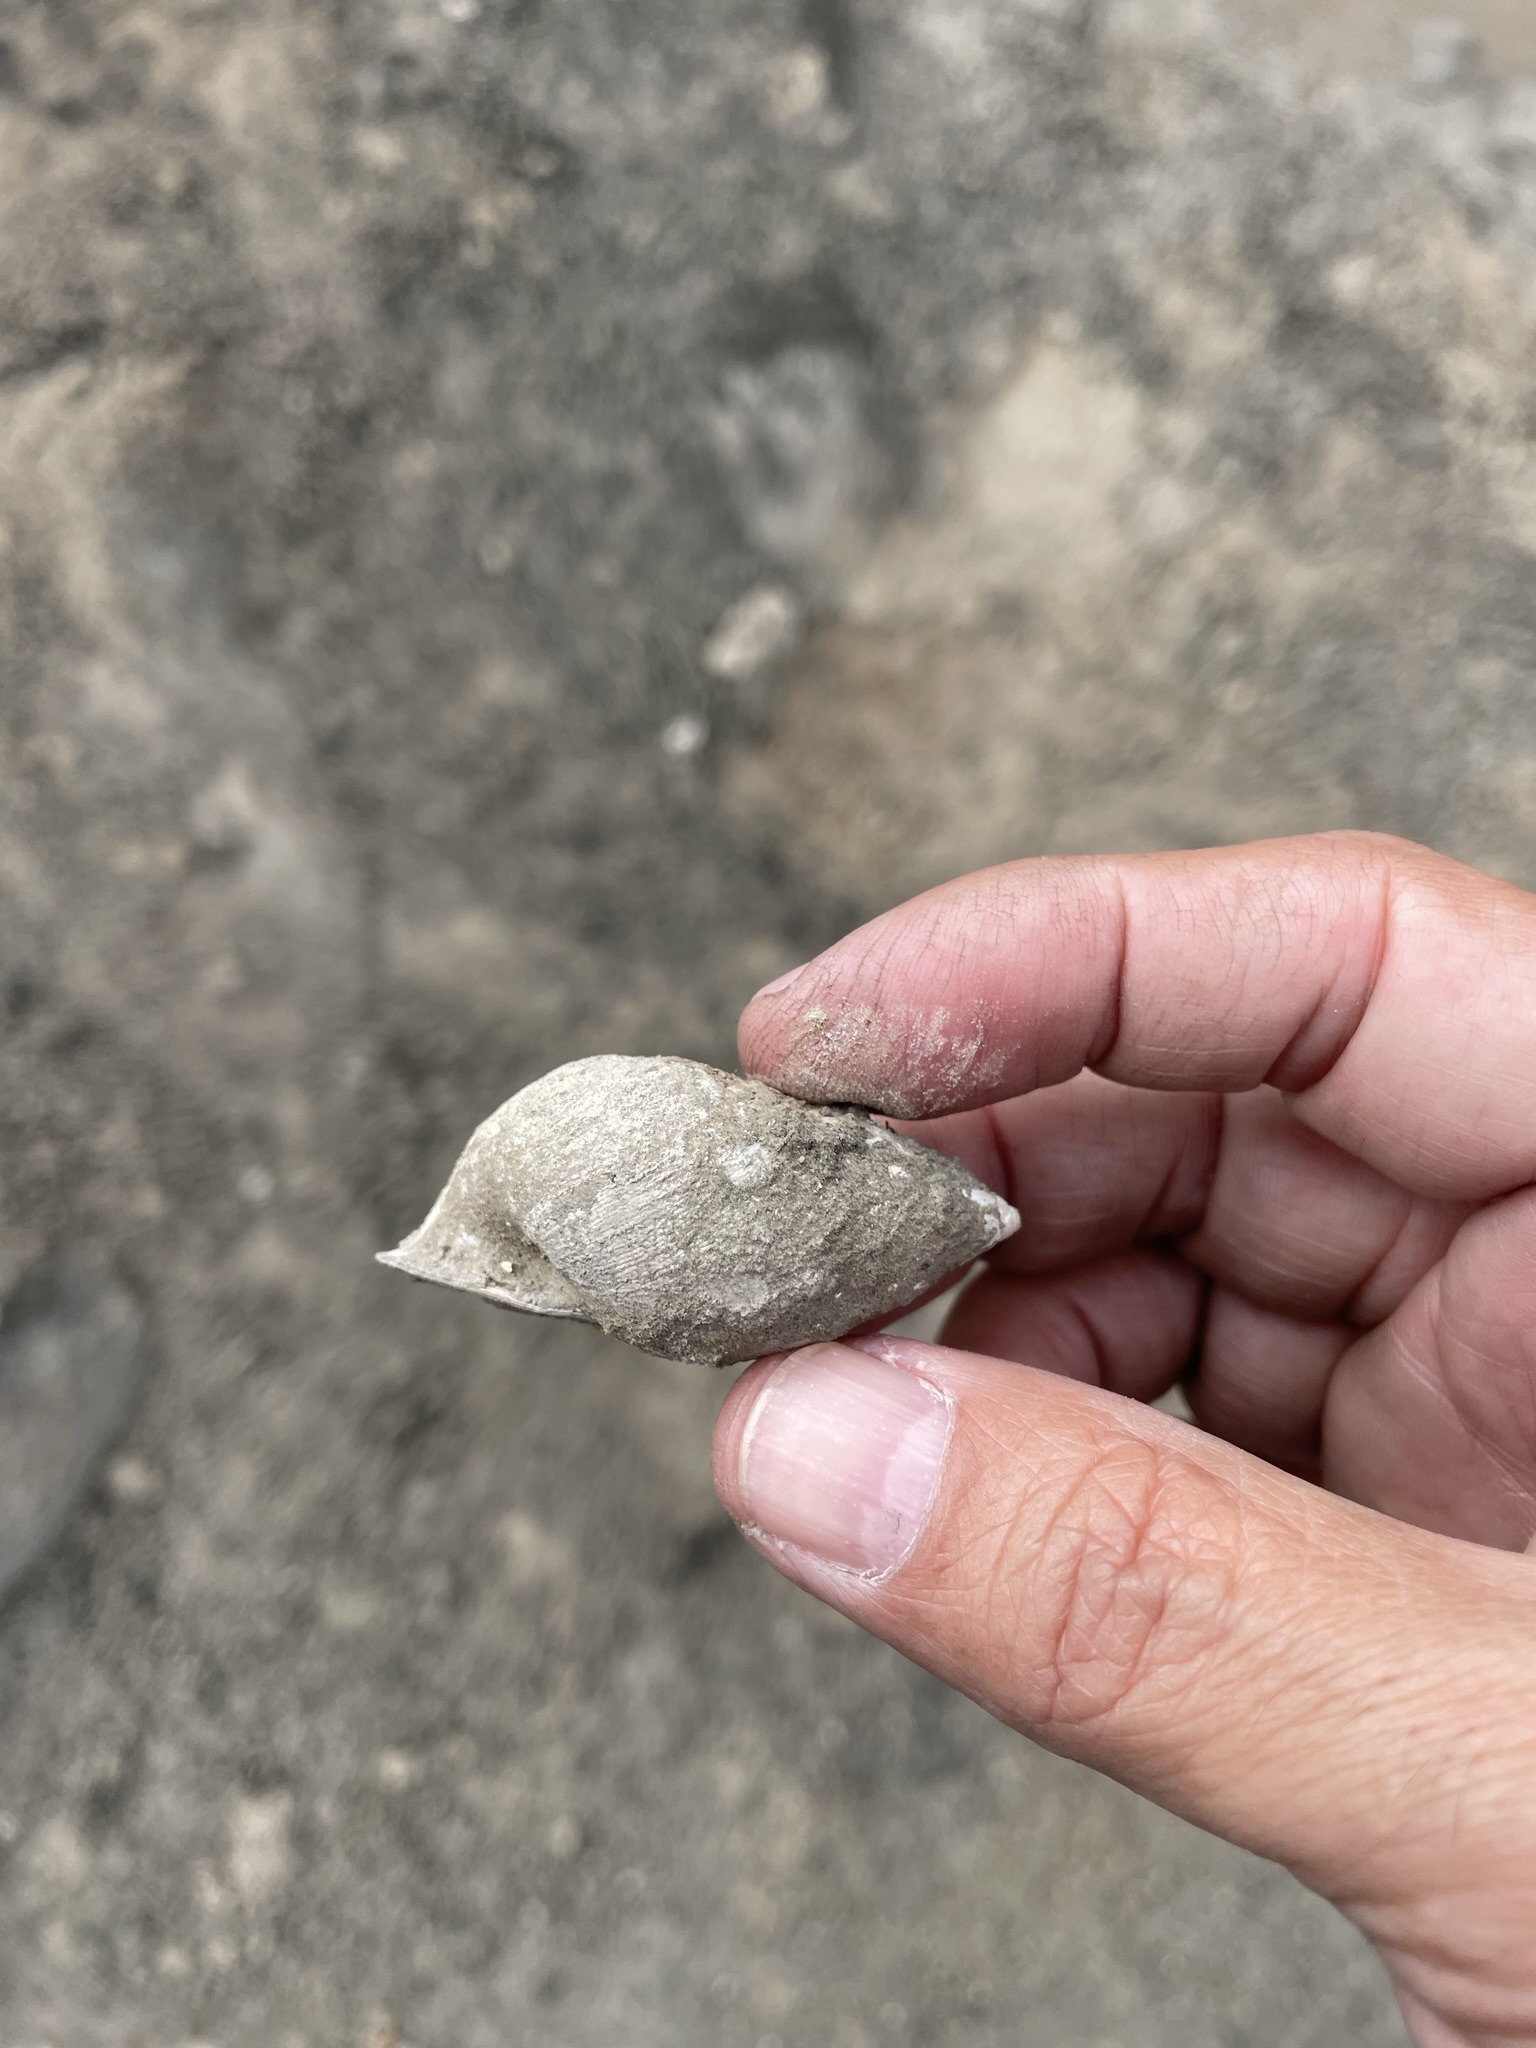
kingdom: Animalia
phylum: Mollusca
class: Gastropoda
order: Stylommatophora
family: Bulimulidae
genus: Scutalus
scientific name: Scutalus versicolor
